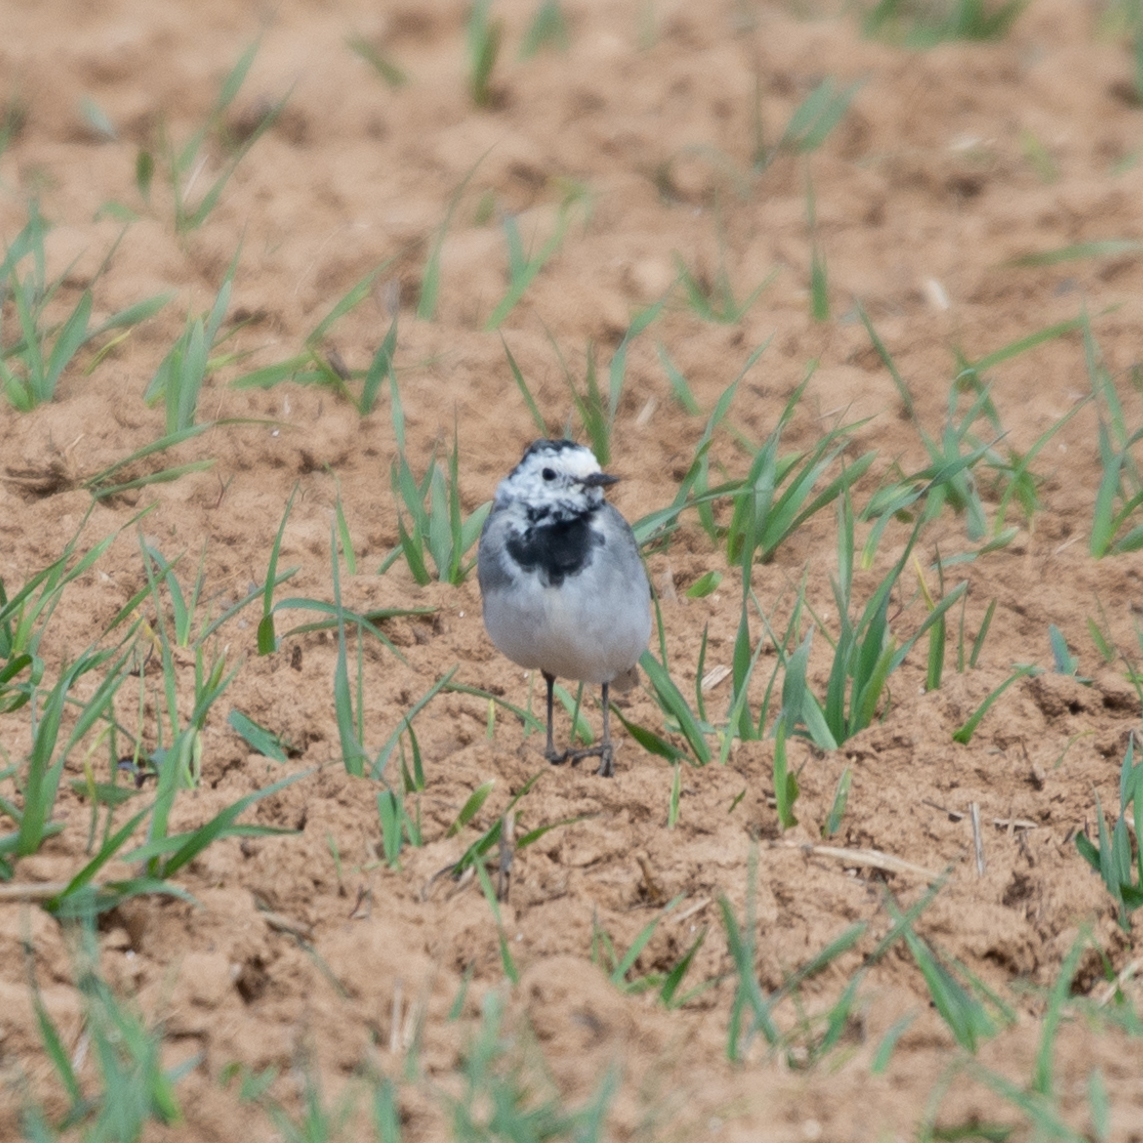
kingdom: Animalia
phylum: Chordata
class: Aves
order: Passeriformes
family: Motacillidae
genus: Motacilla
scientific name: Motacilla alba
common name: White wagtail
